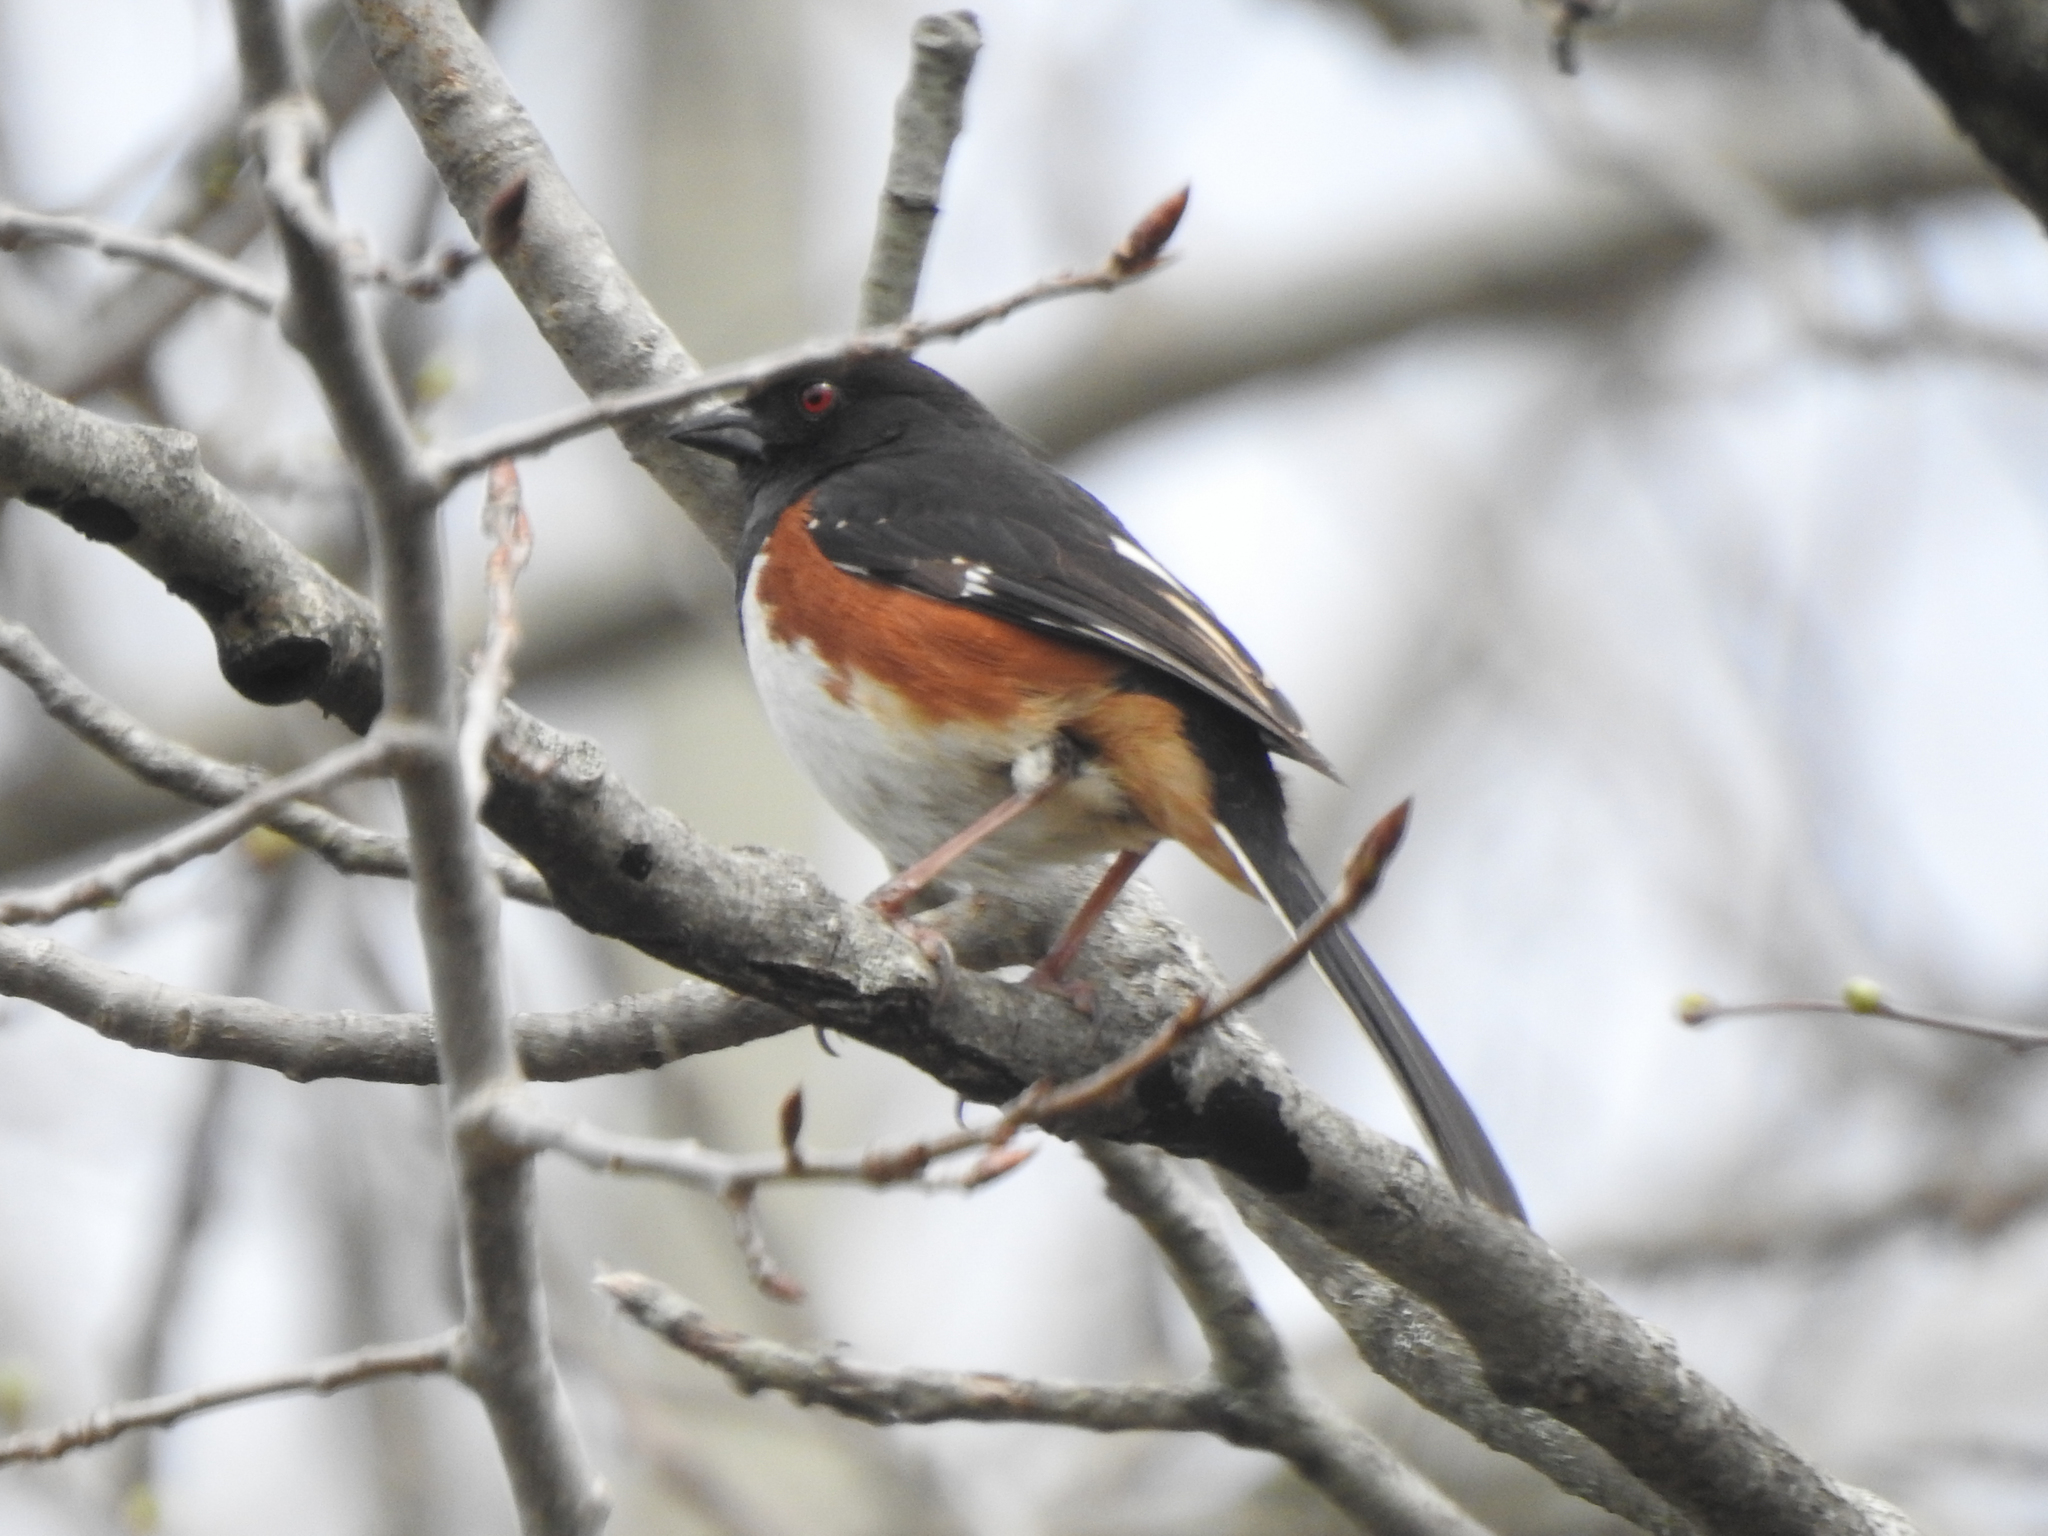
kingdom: Animalia
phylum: Chordata
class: Aves
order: Passeriformes
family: Passerellidae
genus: Pipilo
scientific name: Pipilo erythrophthalmus
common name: Eastern towhee
